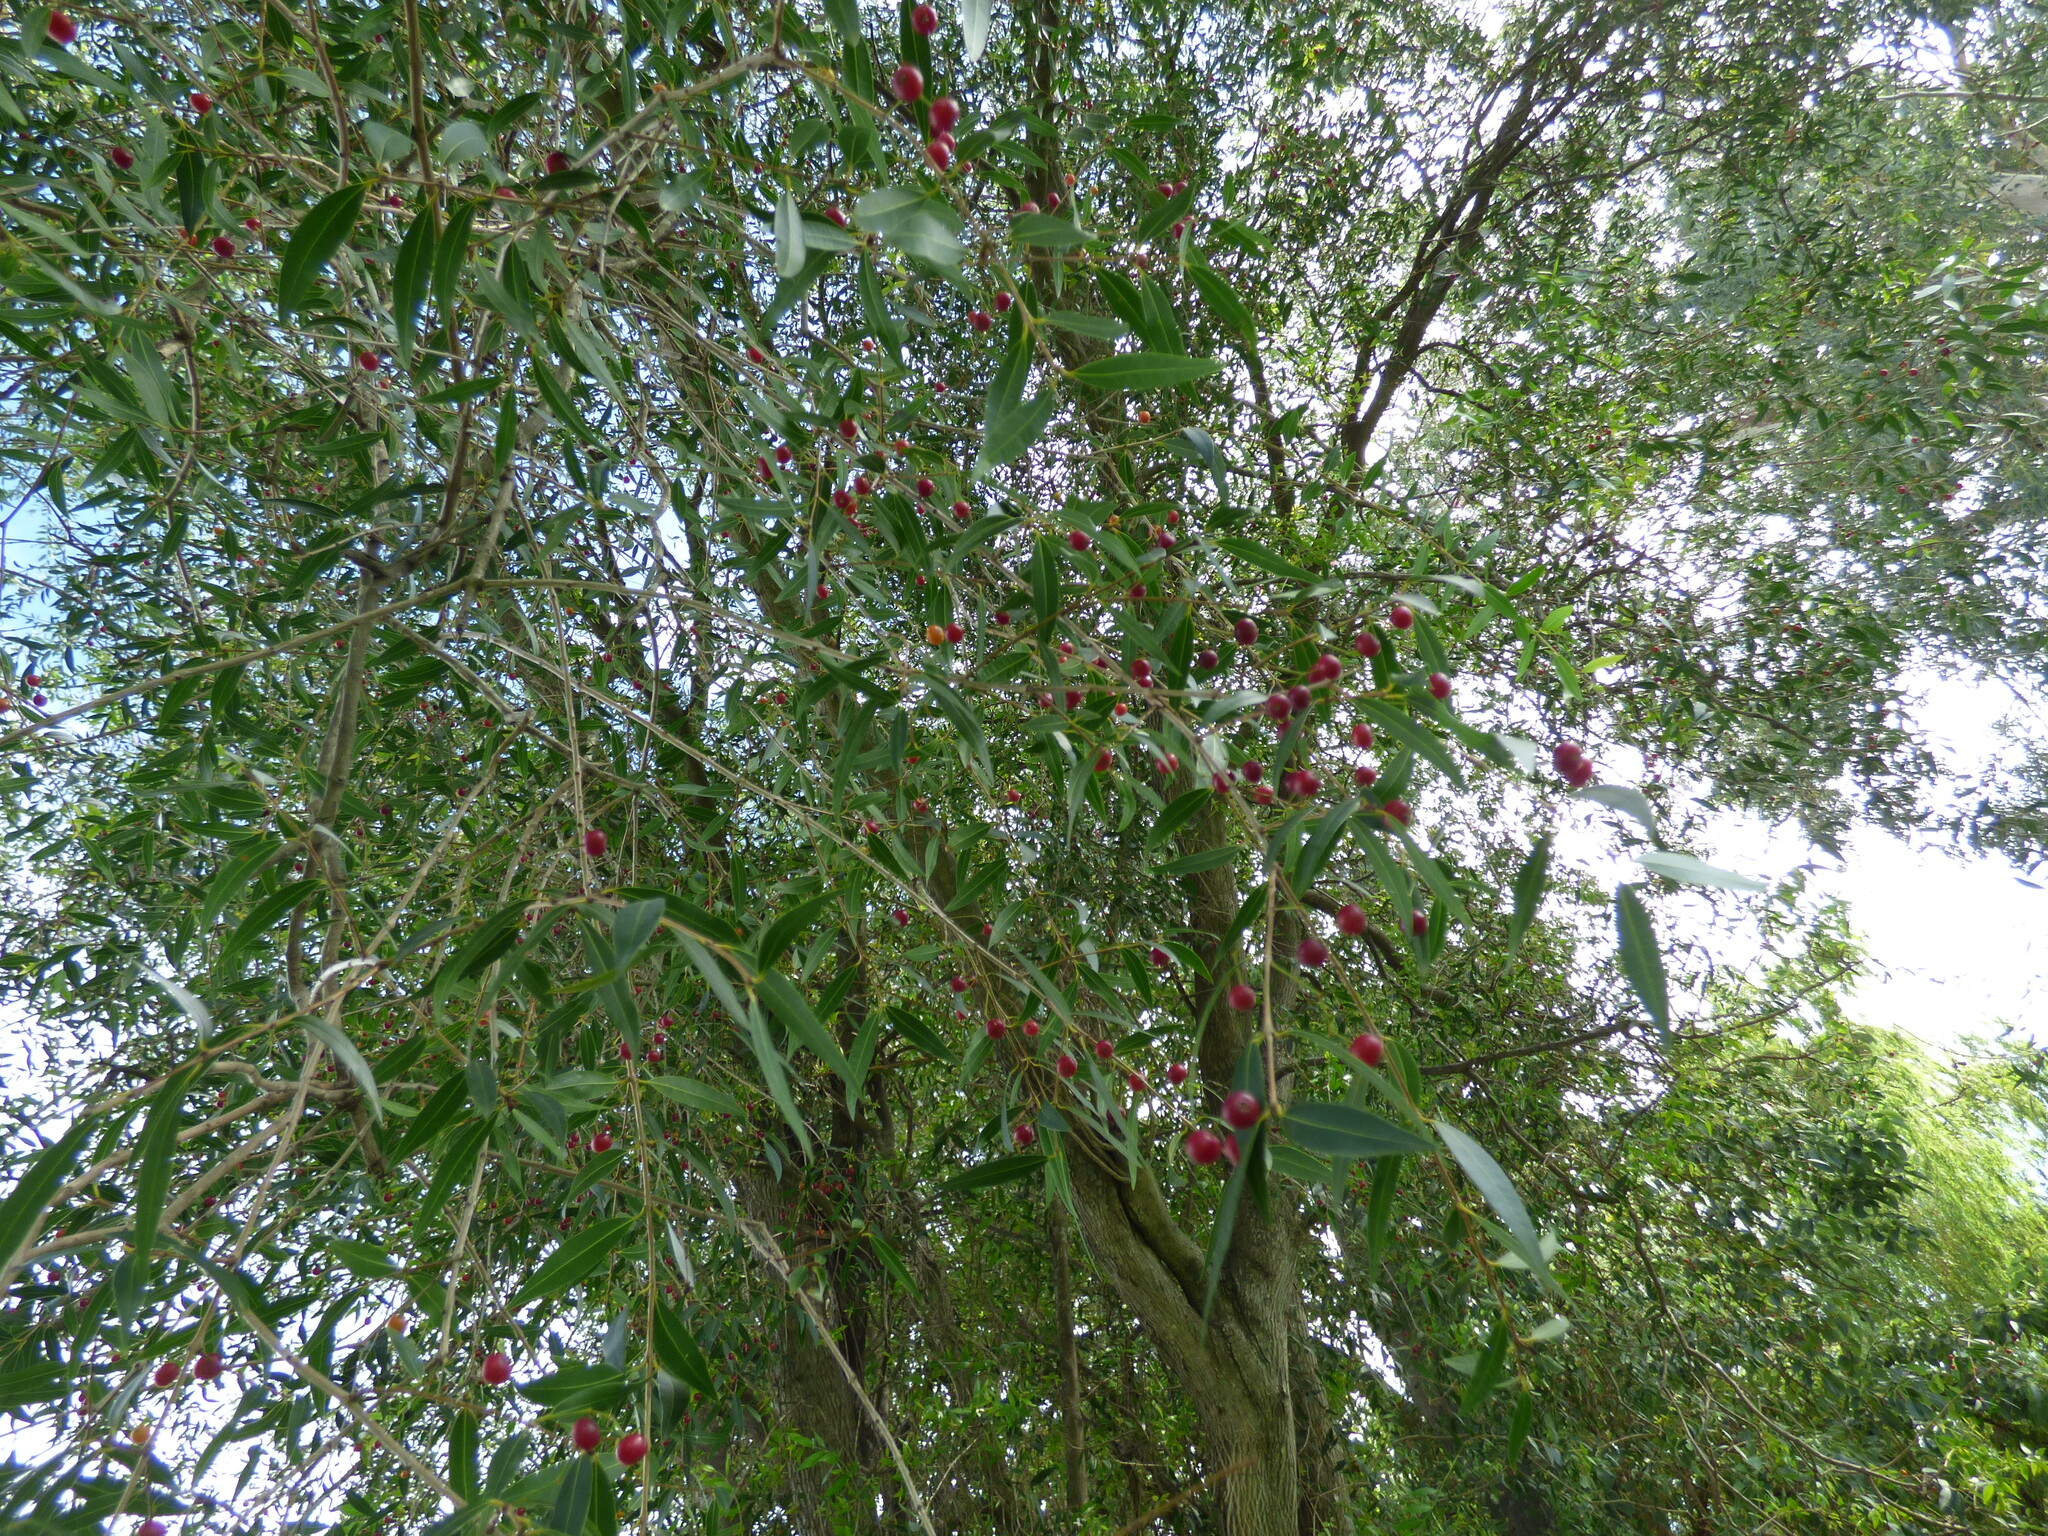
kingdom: Plantae
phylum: Tracheophyta
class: Magnoliopsida
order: Myrtales
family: Myrtaceae
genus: Blepharocalyx
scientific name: Blepharocalyx salicifolius
